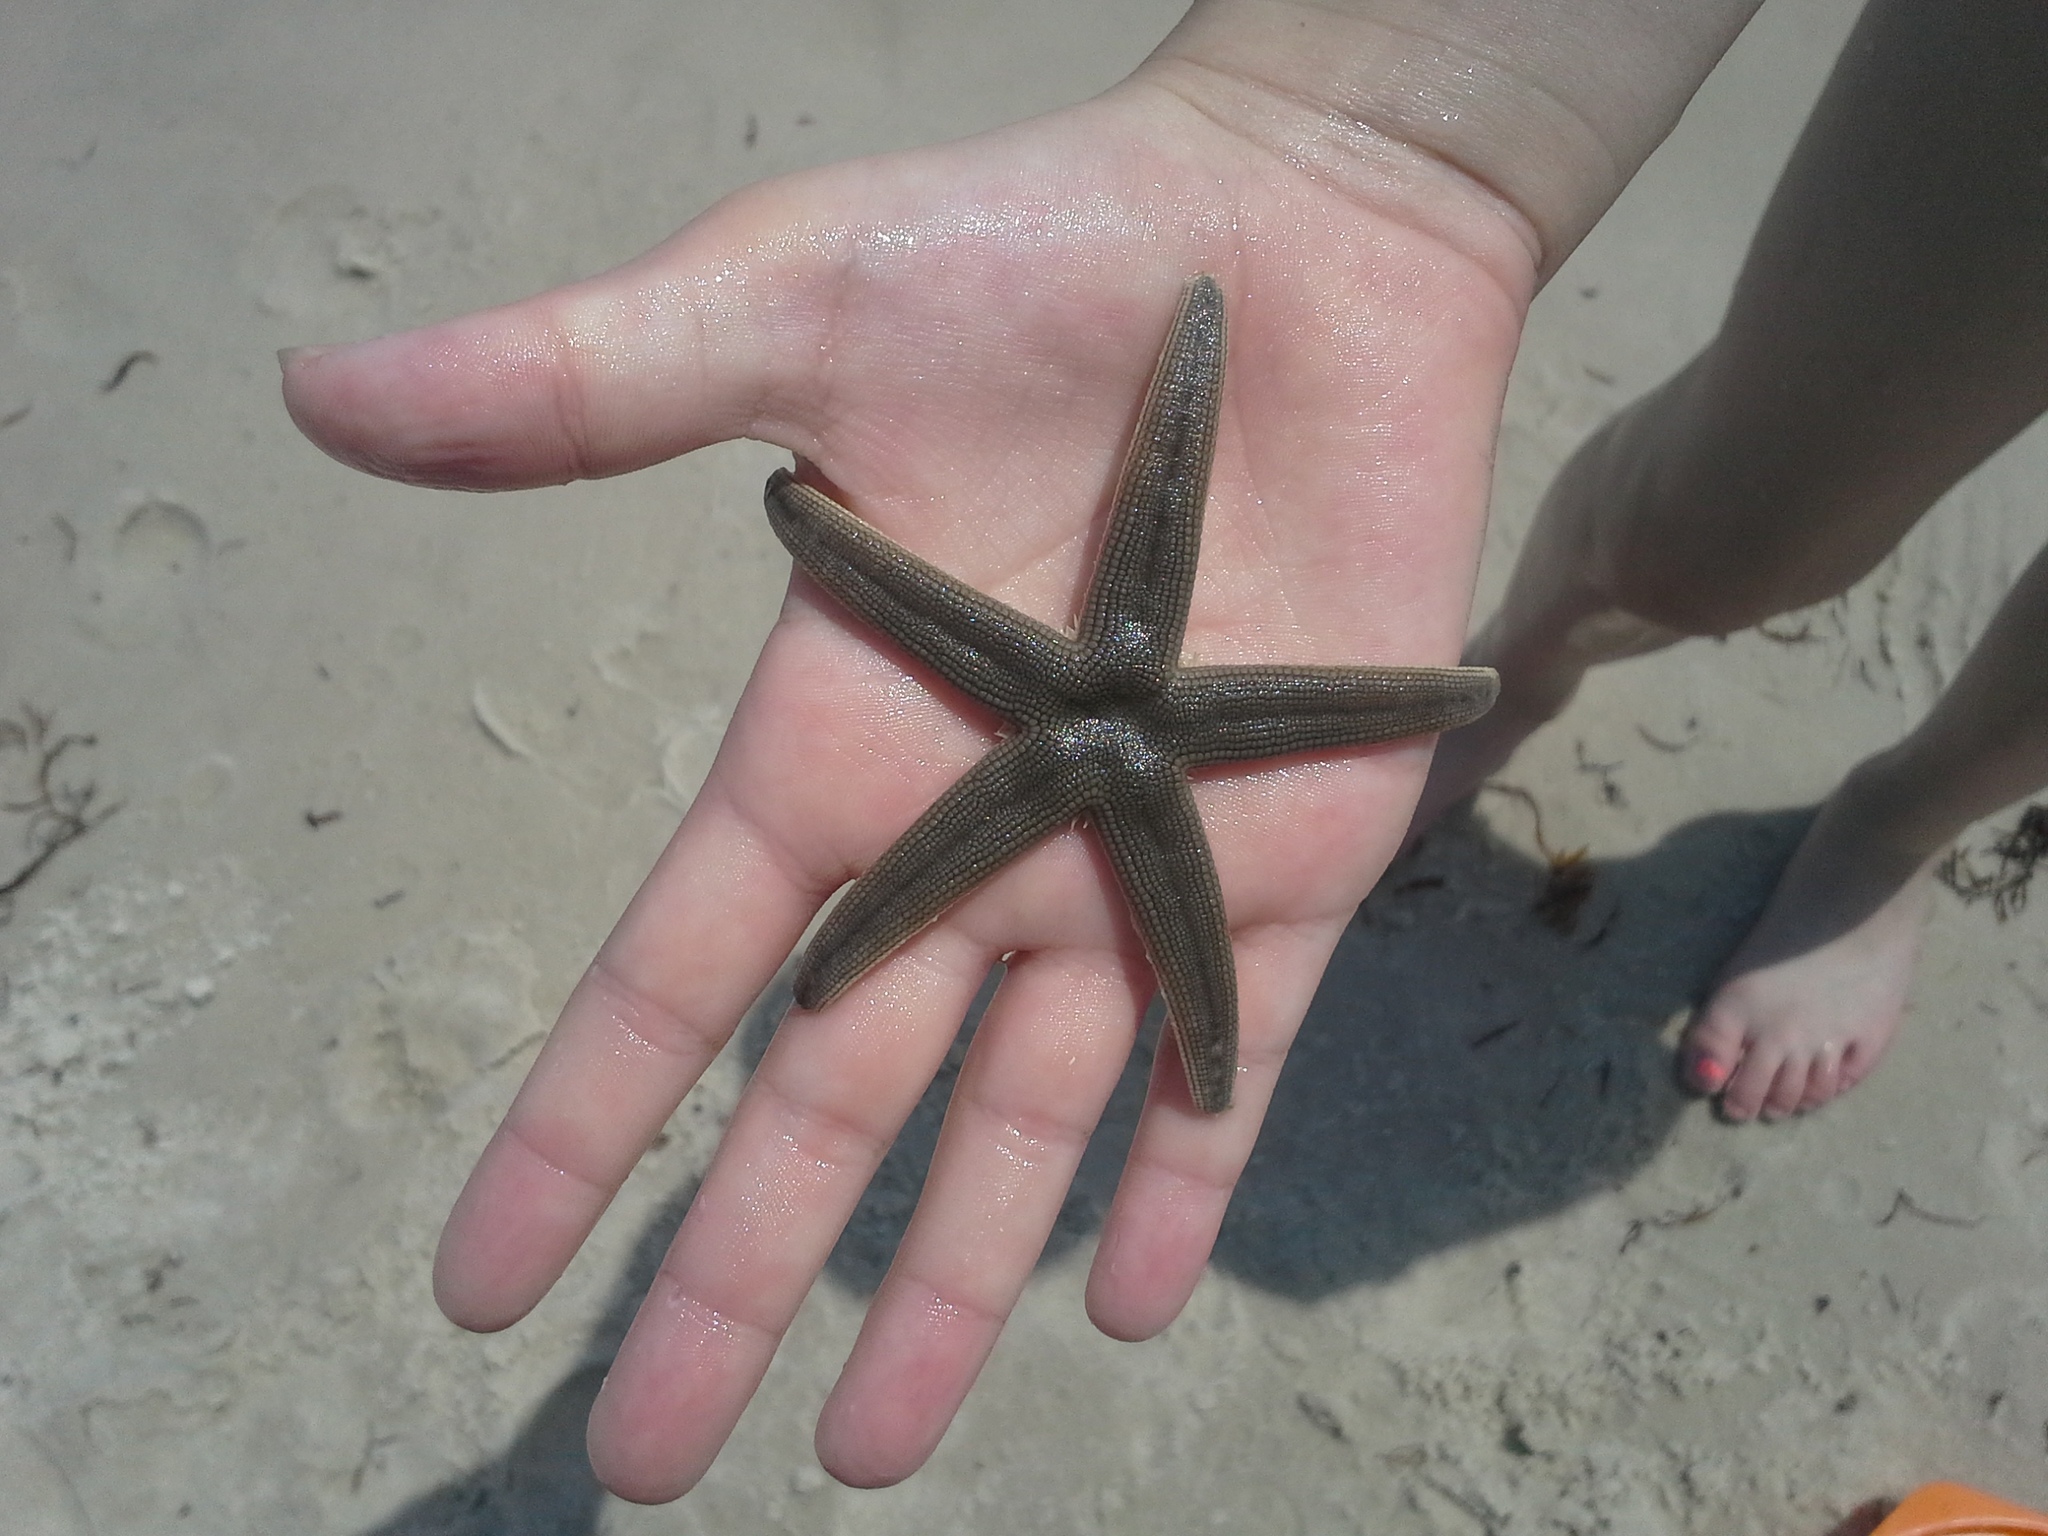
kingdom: Animalia
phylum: Echinodermata
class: Asteroidea
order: Paxillosida
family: Luidiidae
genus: Luidia
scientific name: Luidia clathrata
